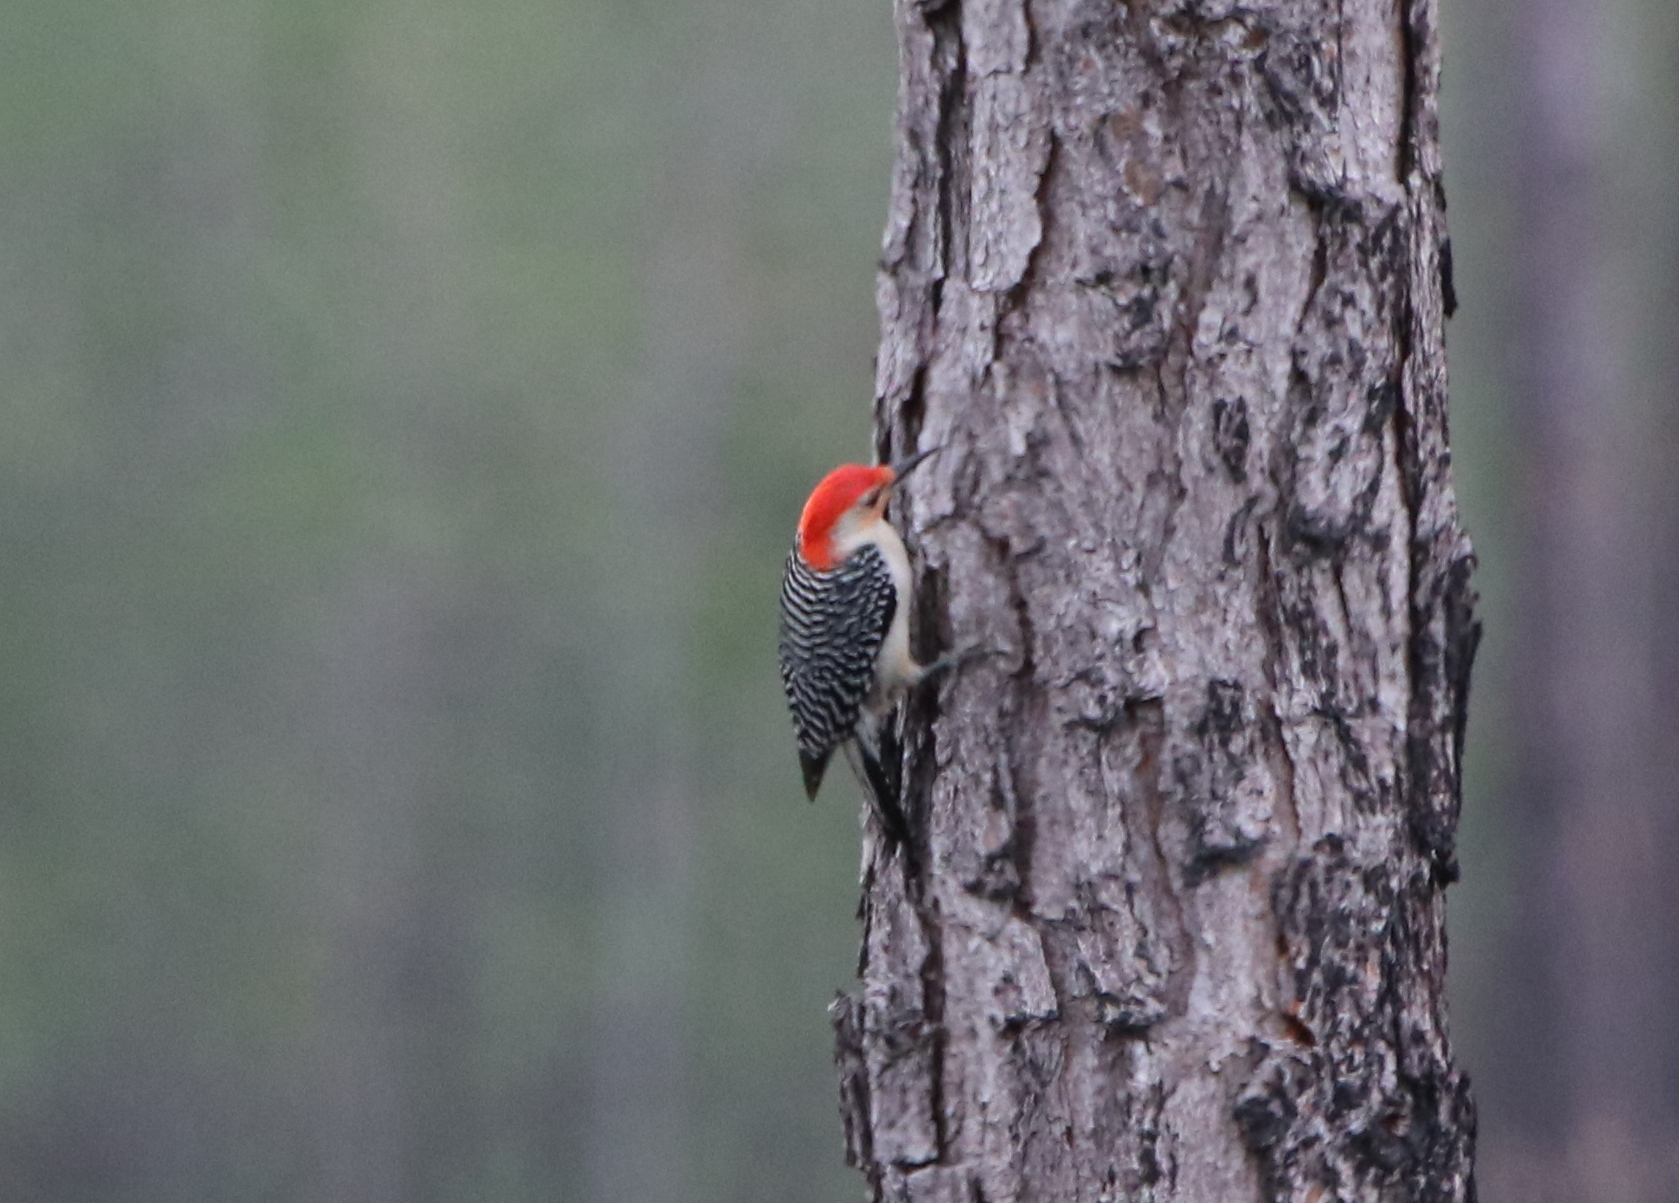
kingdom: Animalia
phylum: Chordata
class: Aves
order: Piciformes
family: Picidae
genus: Melanerpes
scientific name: Melanerpes carolinus
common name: Red-bellied woodpecker
